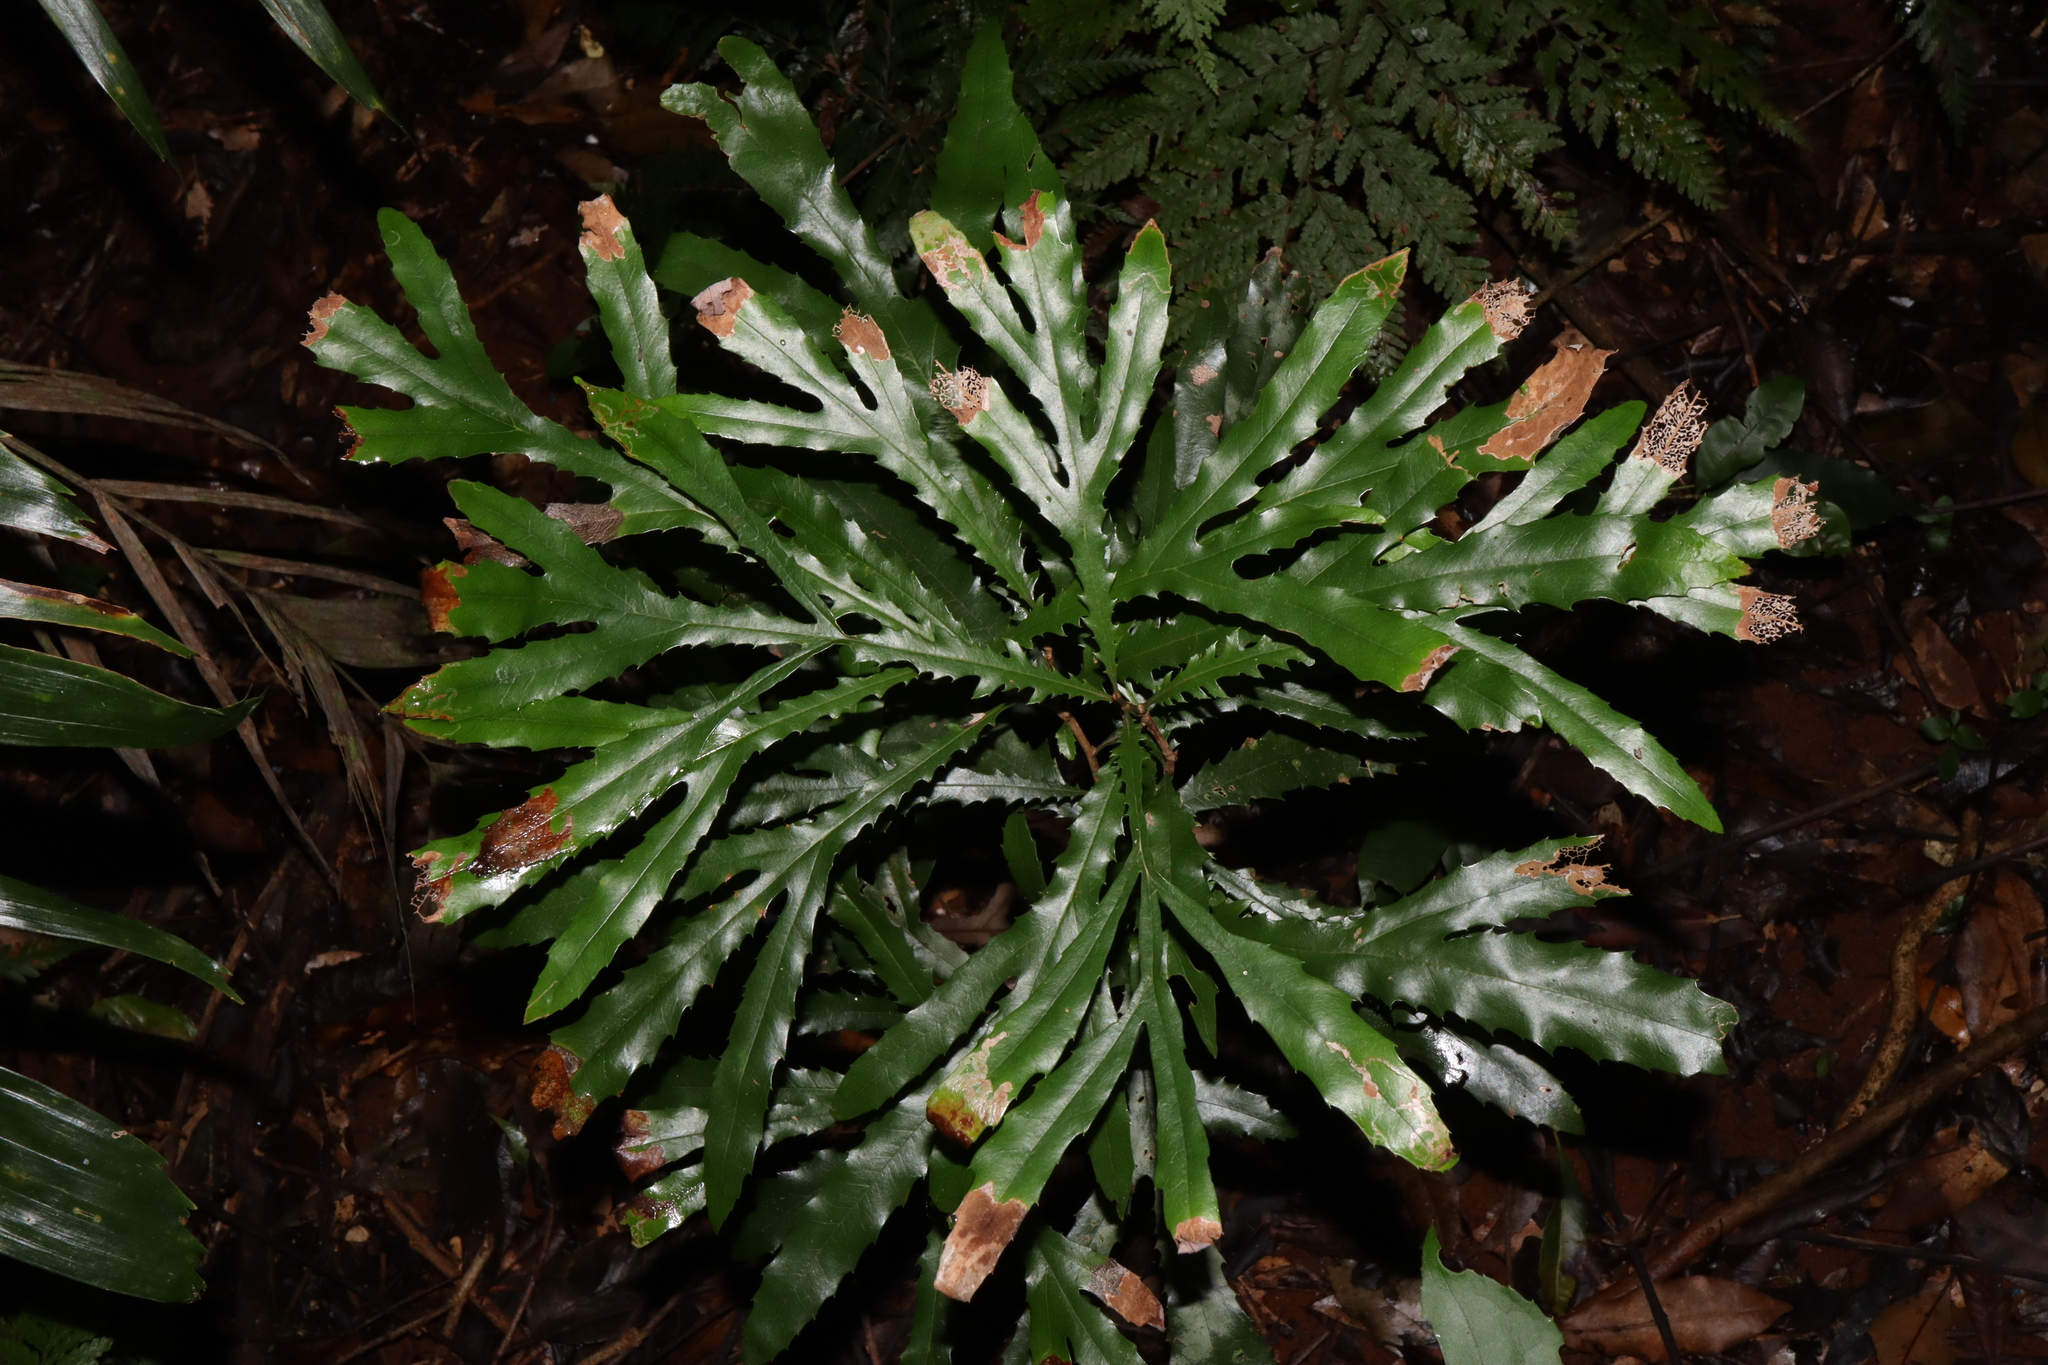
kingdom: Plantae
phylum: Tracheophyta
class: Magnoliopsida
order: Proteales
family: Proteaceae
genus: Orites
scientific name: Orites excelsus
